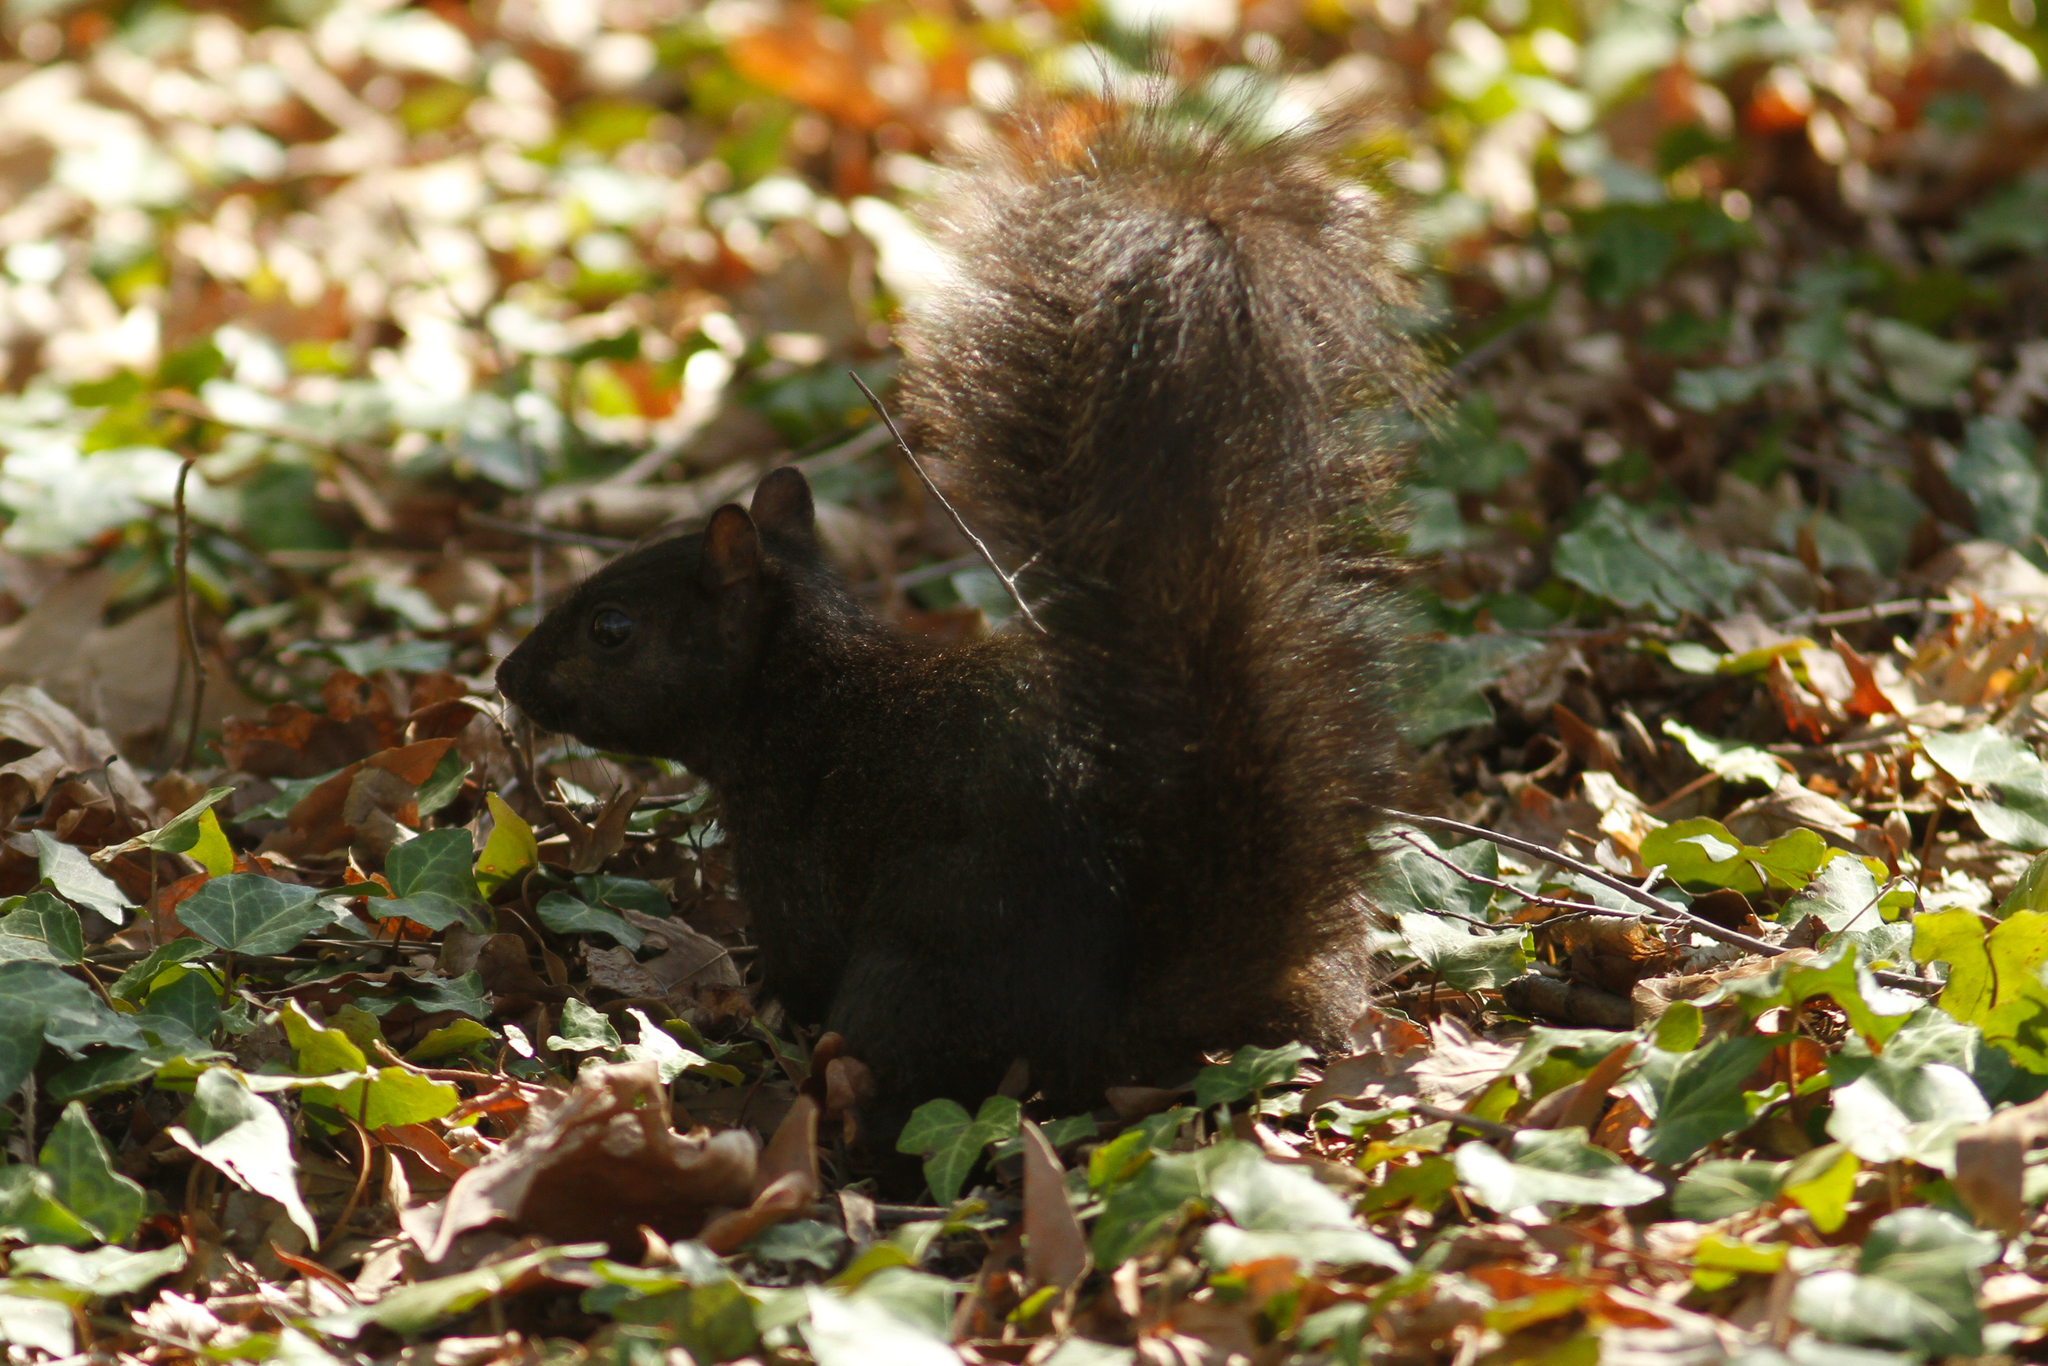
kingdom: Animalia
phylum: Chordata
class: Mammalia
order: Rodentia
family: Sciuridae
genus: Sciurus
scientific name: Sciurus carolinensis
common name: Eastern gray squirrel
